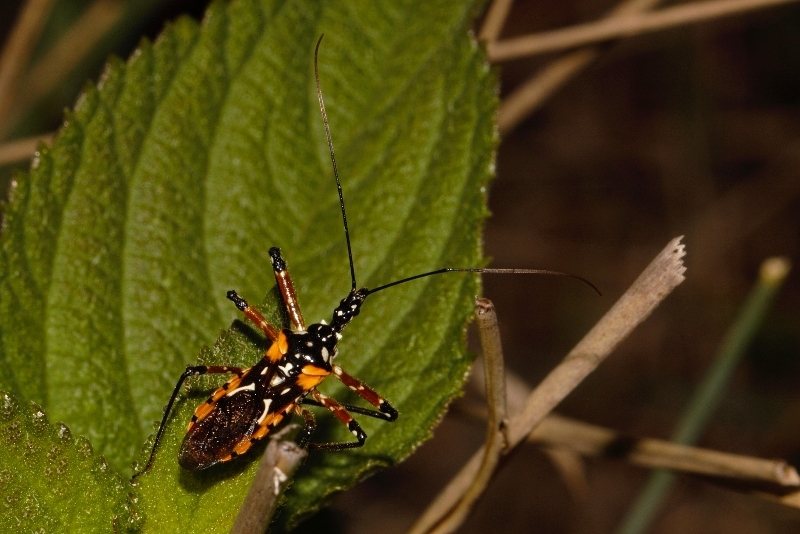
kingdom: Animalia
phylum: Arthropoda
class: Insecta
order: Hemiptera
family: Reduviidae
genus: Cosmolestes
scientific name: Cosmolestes pictus
